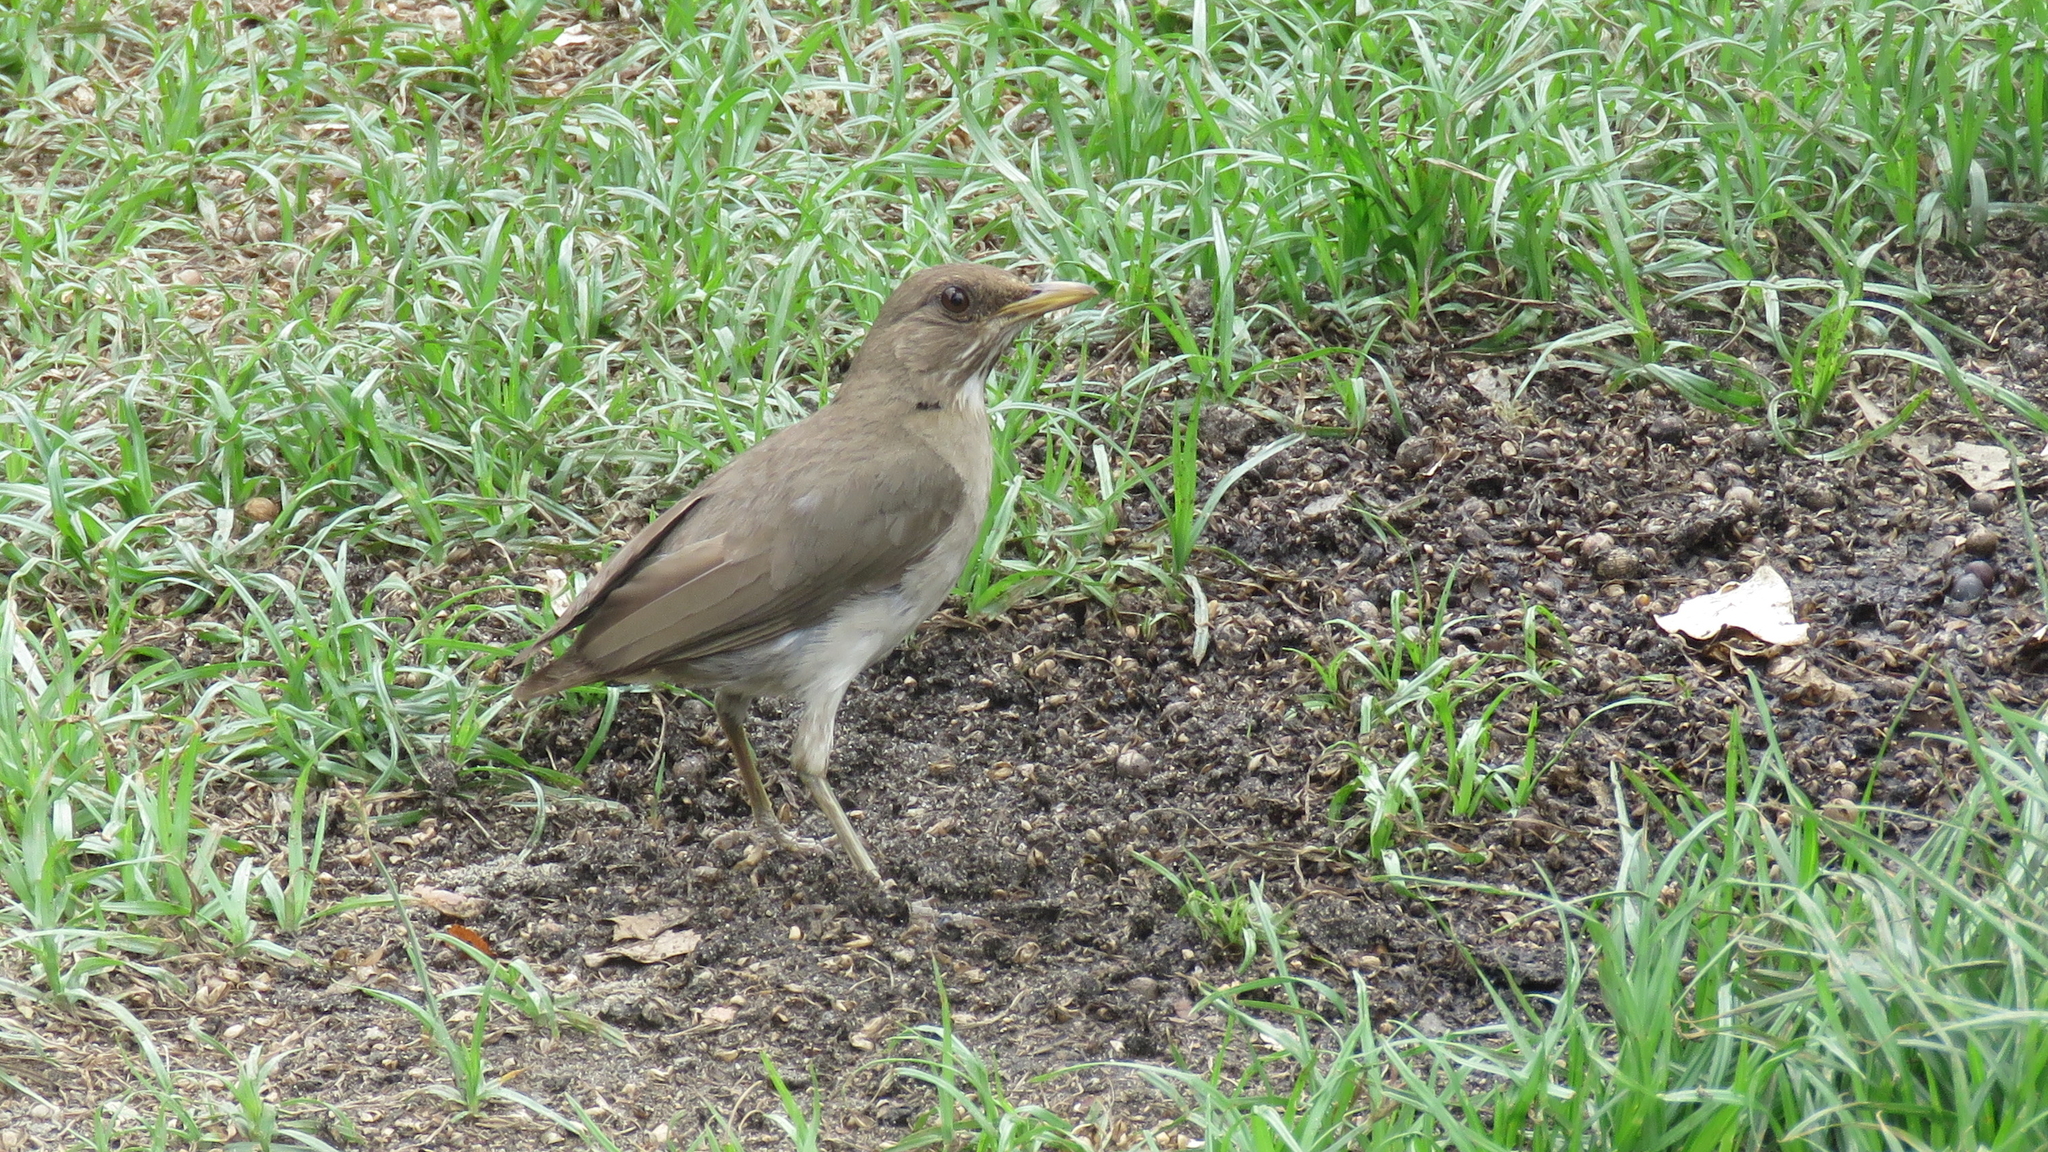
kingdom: Animalia
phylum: Chordata
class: Aves
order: Passeriformes
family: Turdidae
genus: Turdus
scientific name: Turdus amaurochalinus
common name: Creamy-bellied thrush
